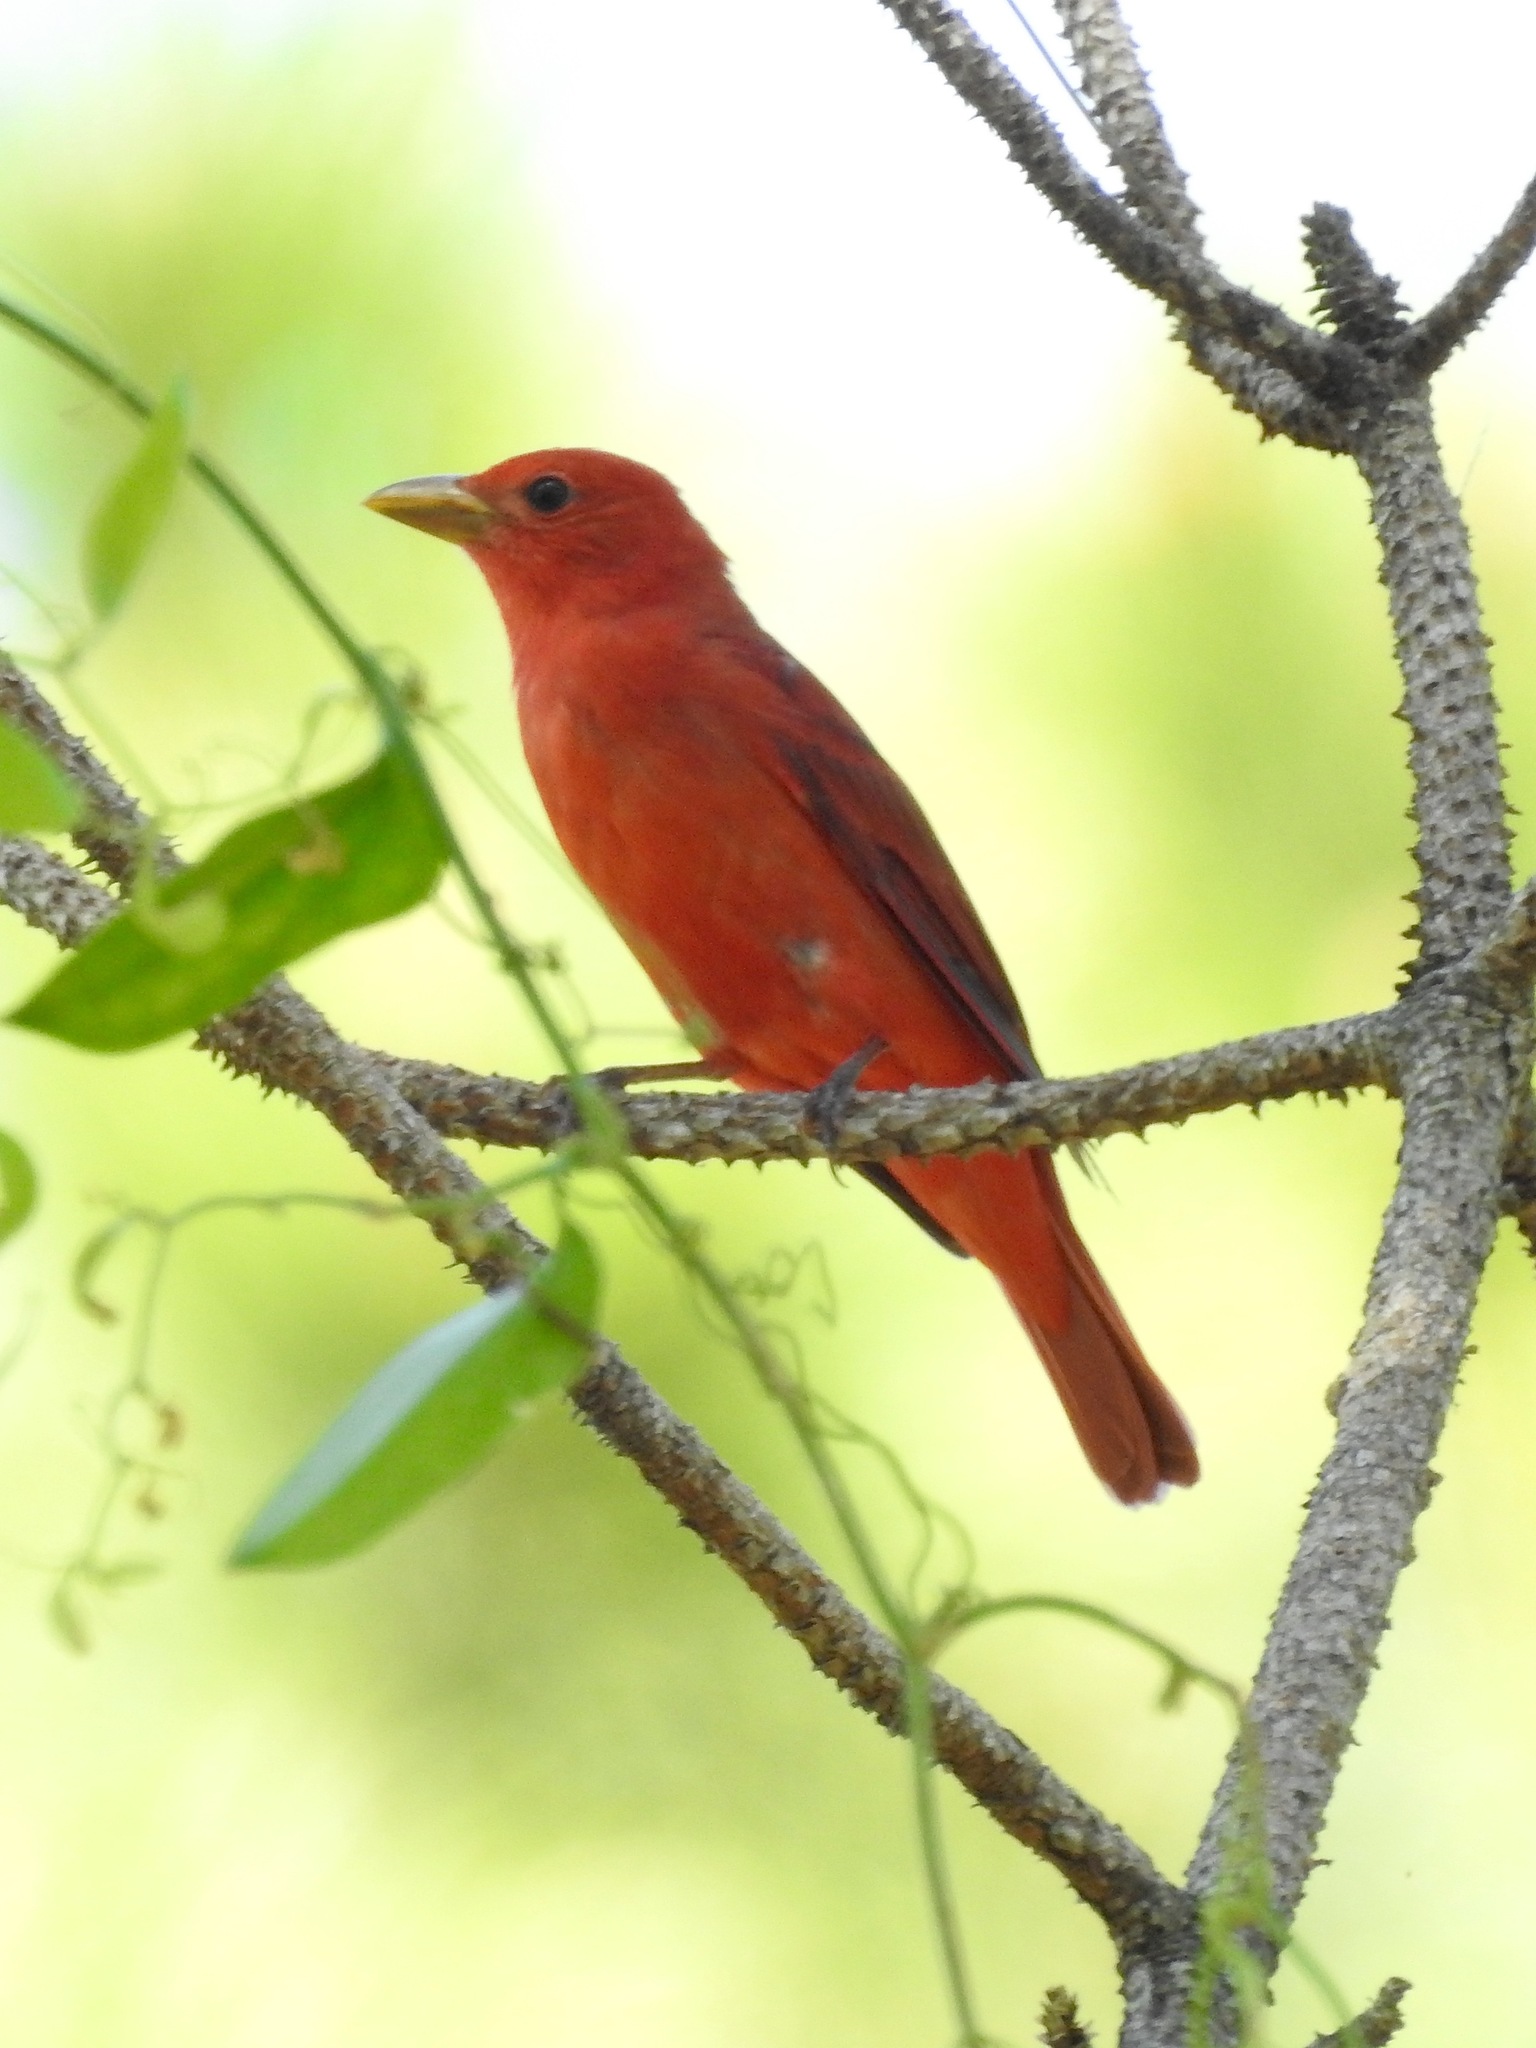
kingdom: Animalia
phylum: Chordata
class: Aves
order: Passeriformes
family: Cardinalidae
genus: Piranga
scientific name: Piranga rubra
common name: Summer tanager
